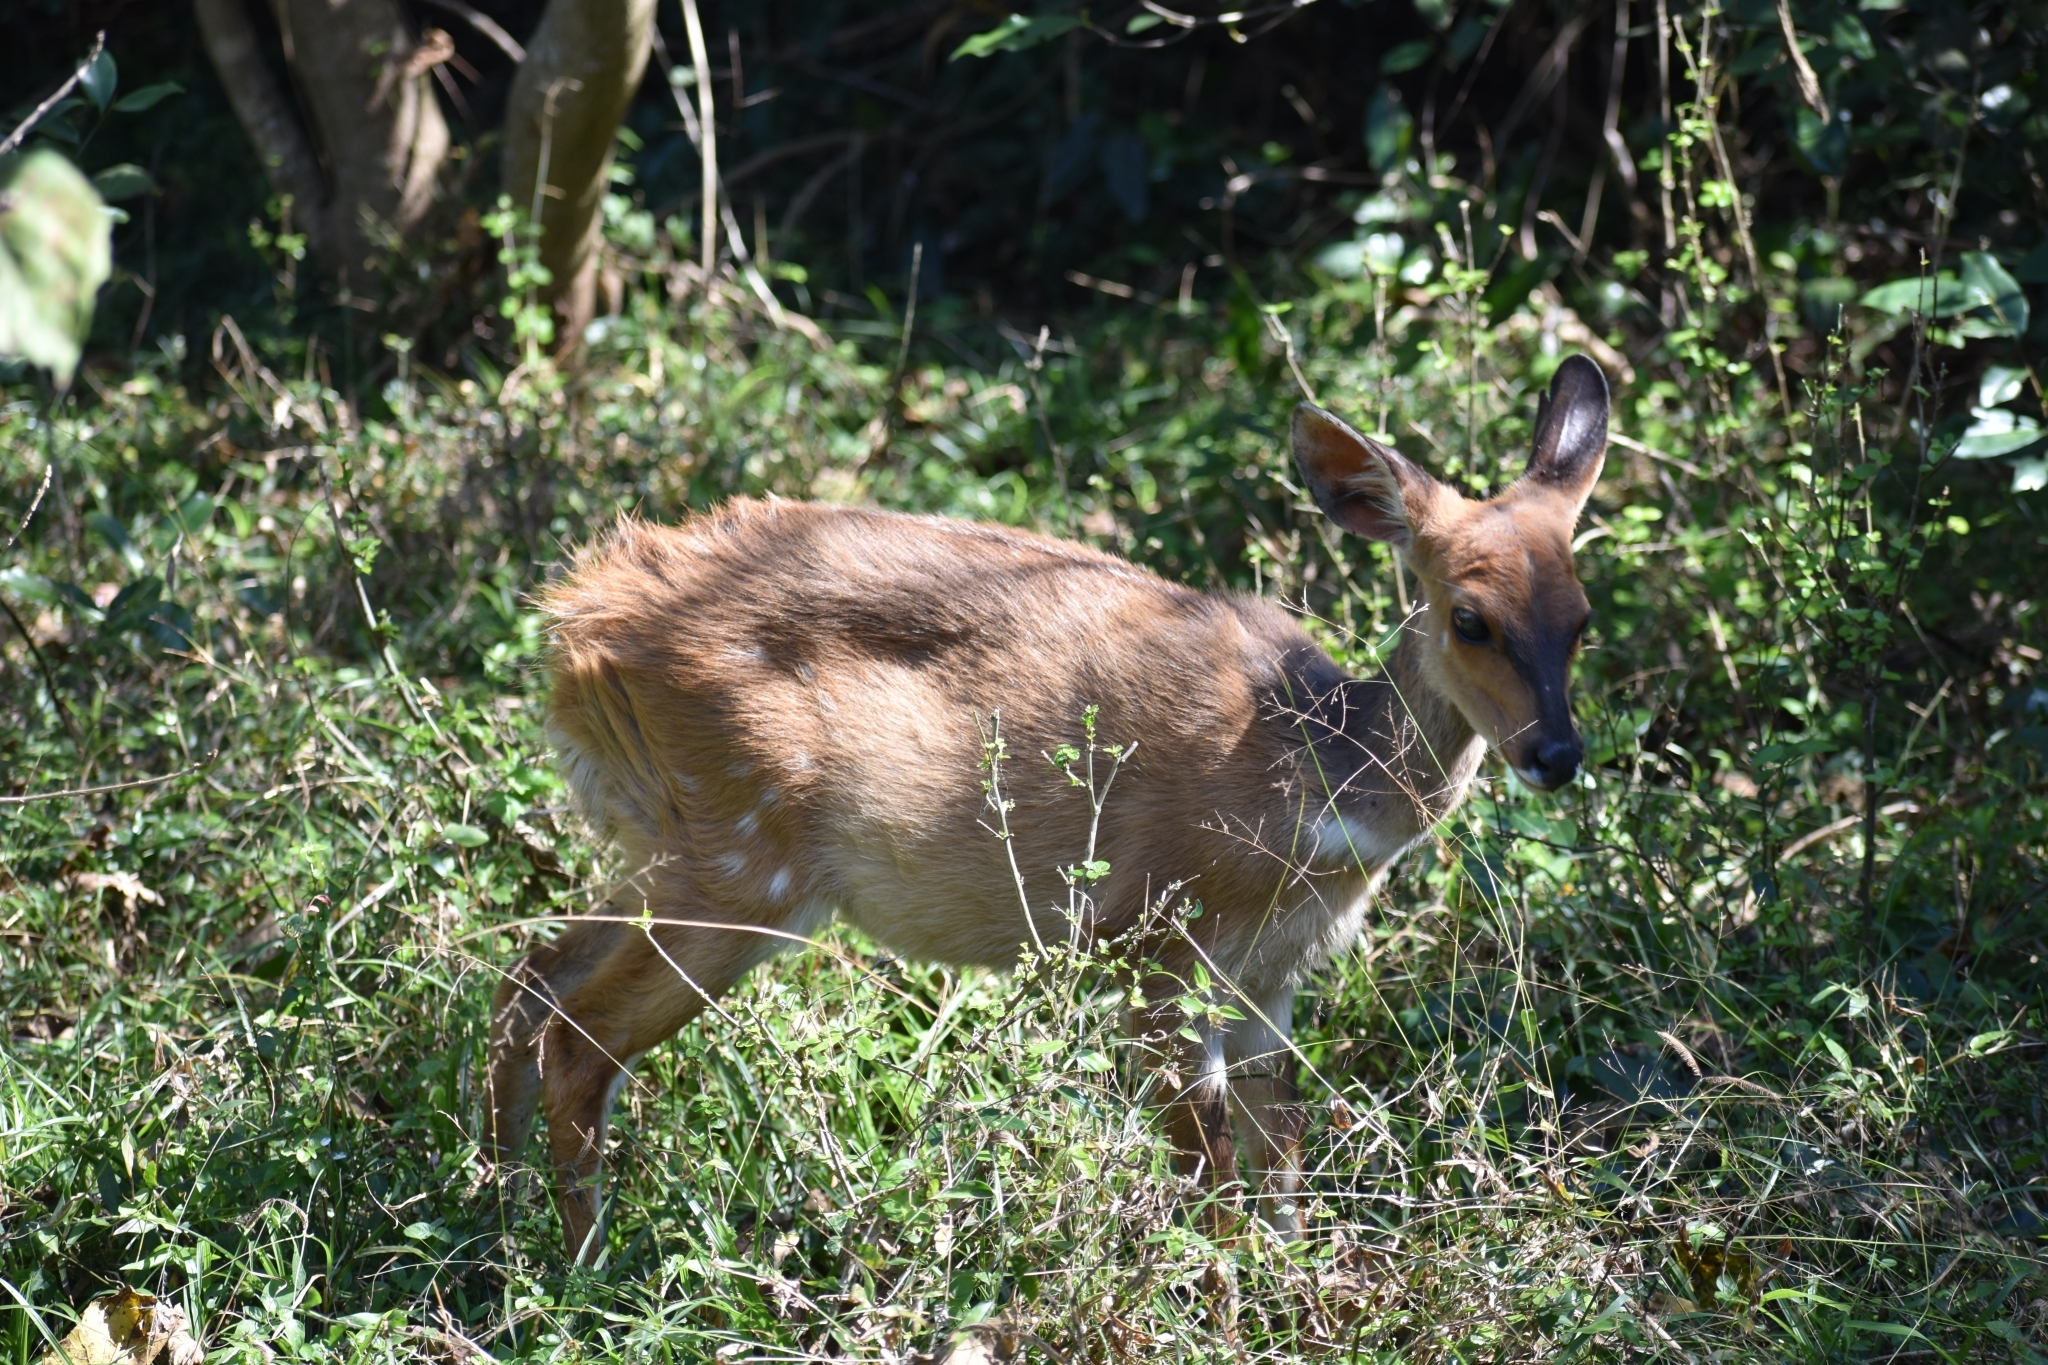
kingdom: Animalia
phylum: Chordata
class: Mammalia
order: Artiodactyla
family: Bovidae
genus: Tragelaphus
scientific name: Tragelaphus scriptus
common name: Bushbuck
